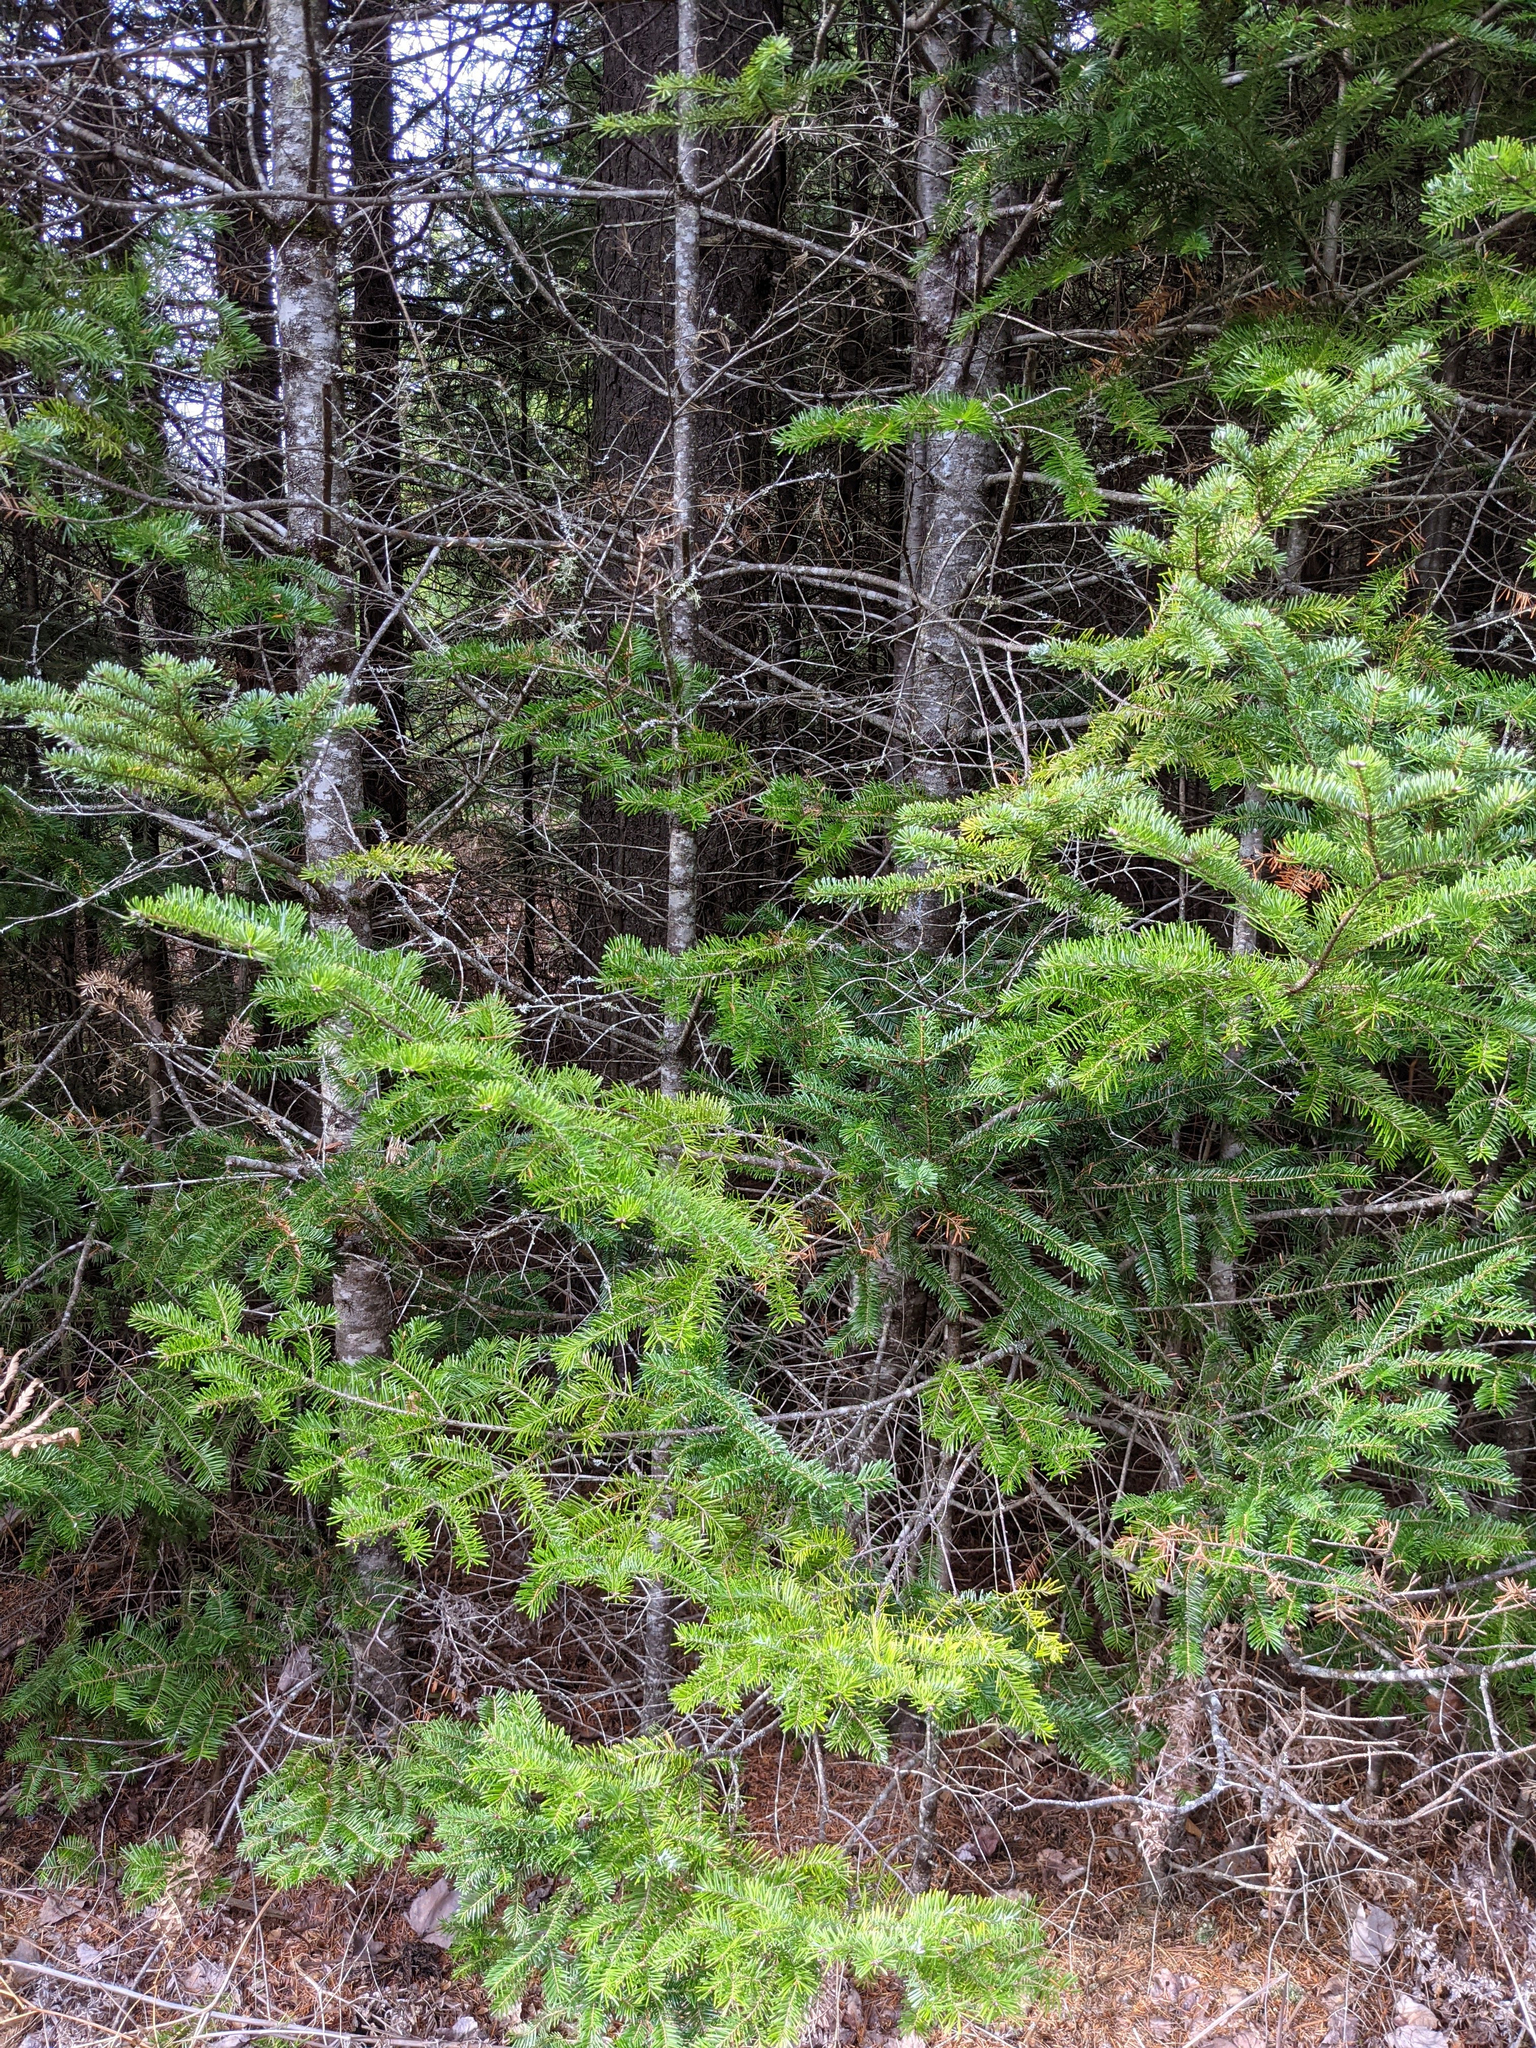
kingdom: Plantae
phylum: Tracheophyta
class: Pinopsida
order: Pinales
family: Pinaceae
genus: Abies
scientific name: Abies balsamea
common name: Balsam fir
